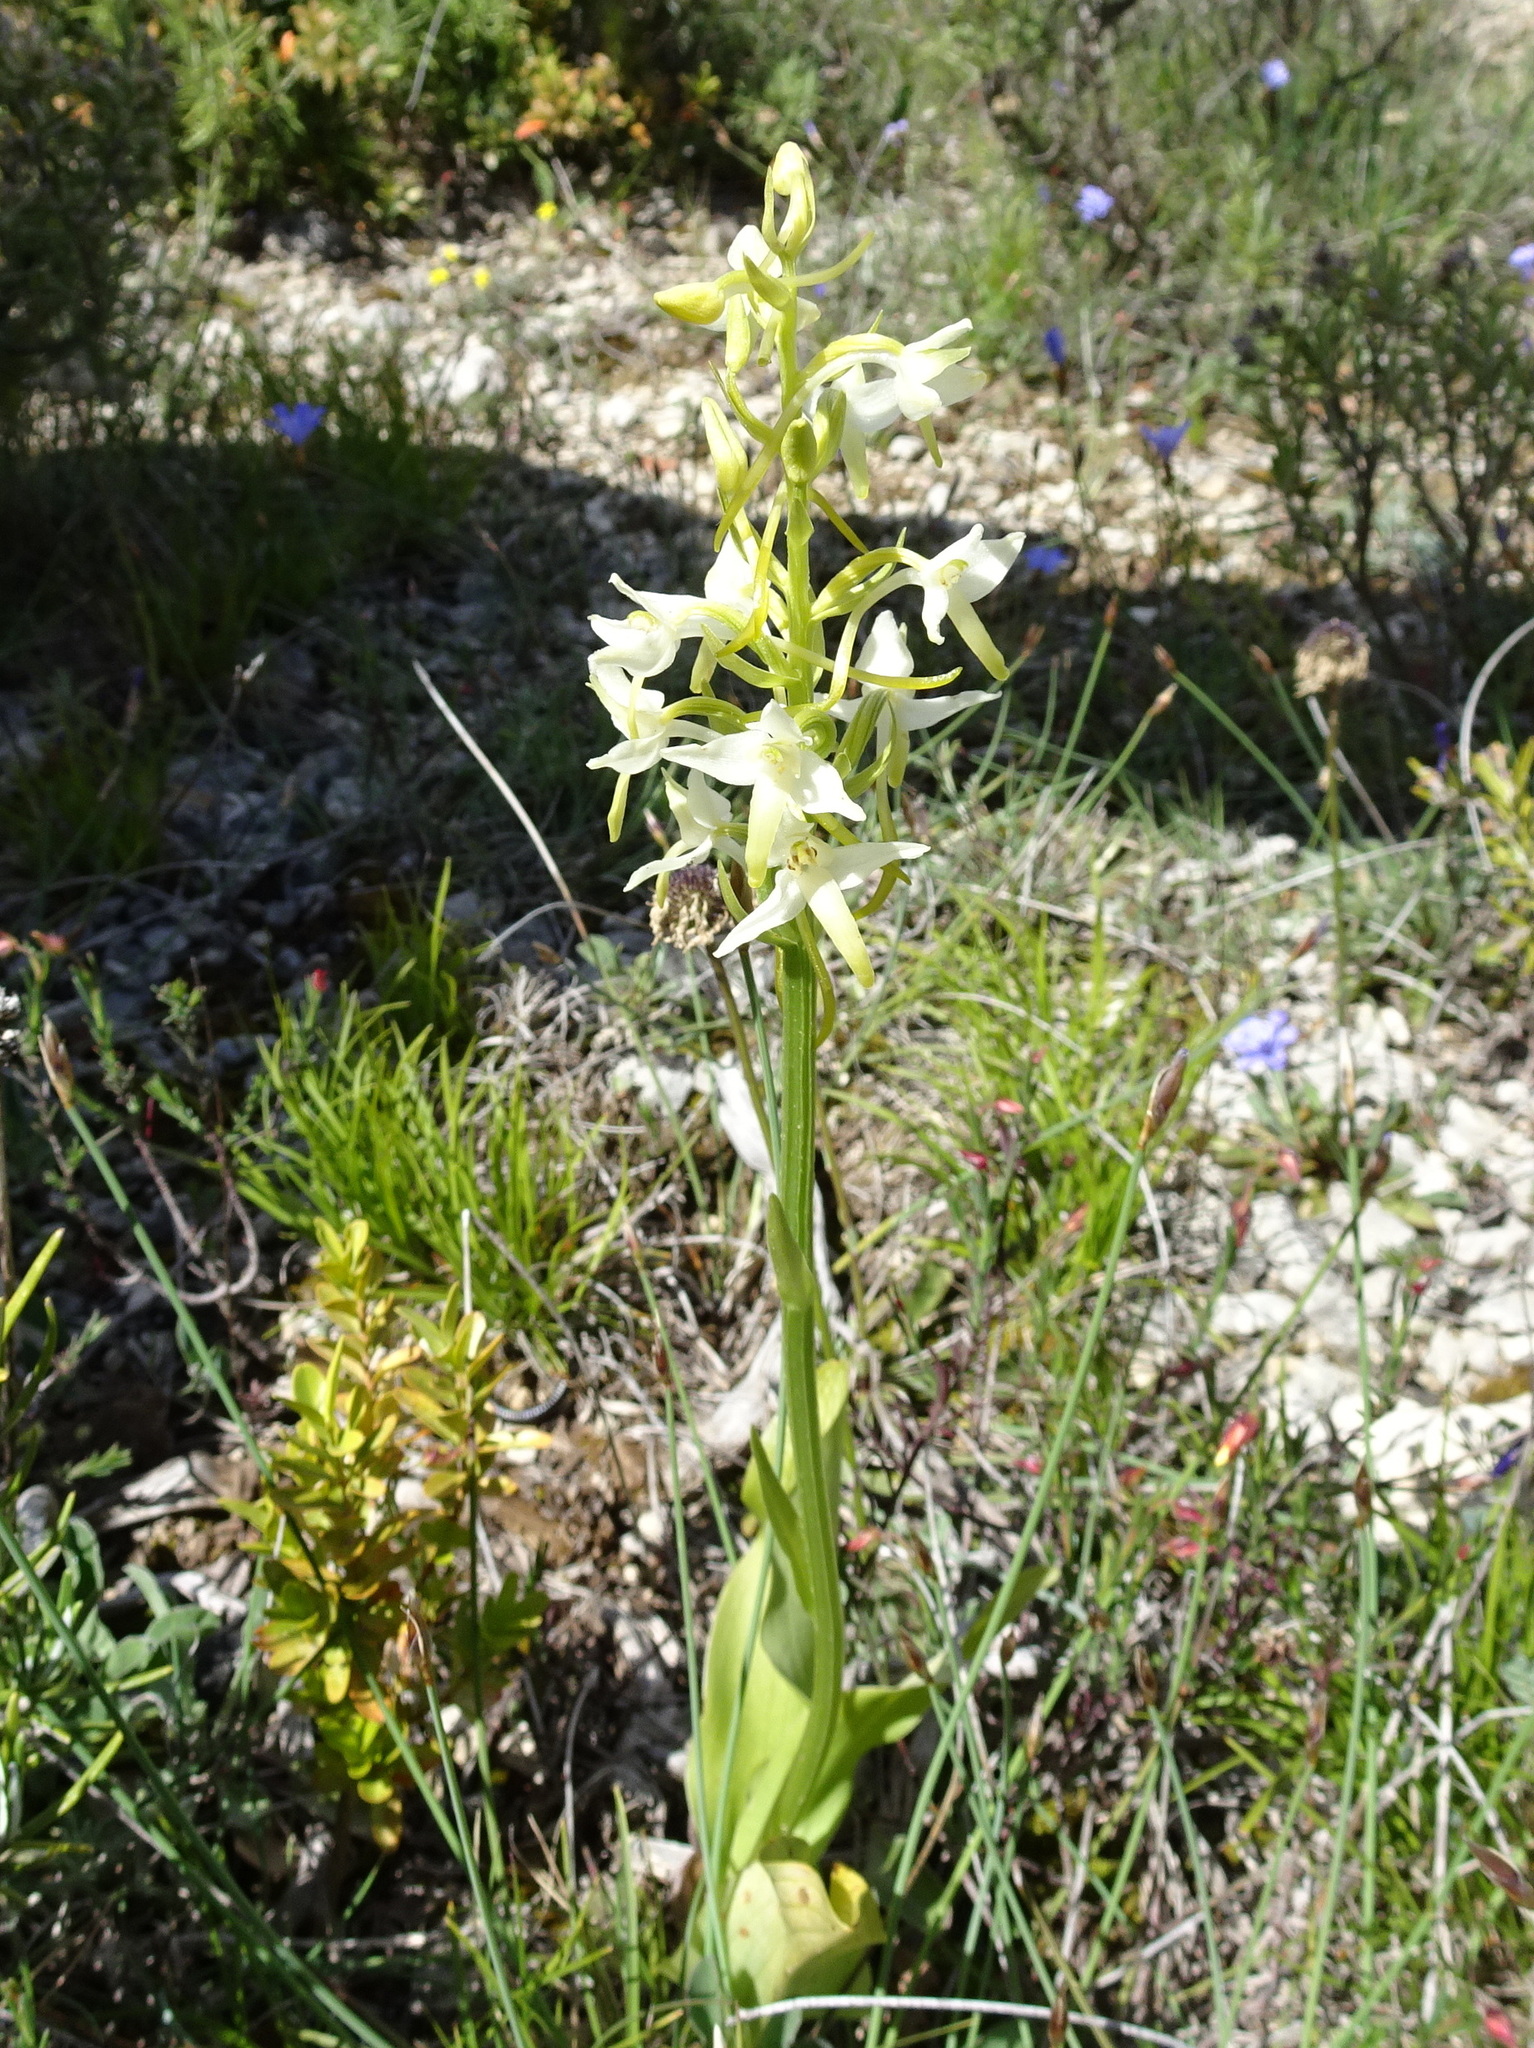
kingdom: Plantae
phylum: Tracheophyta
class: Liliopsida
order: Asparagales
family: Orchidaceae
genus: Platanthera
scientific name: Platanthera bifolia
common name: Lesser butterfly-orchid
